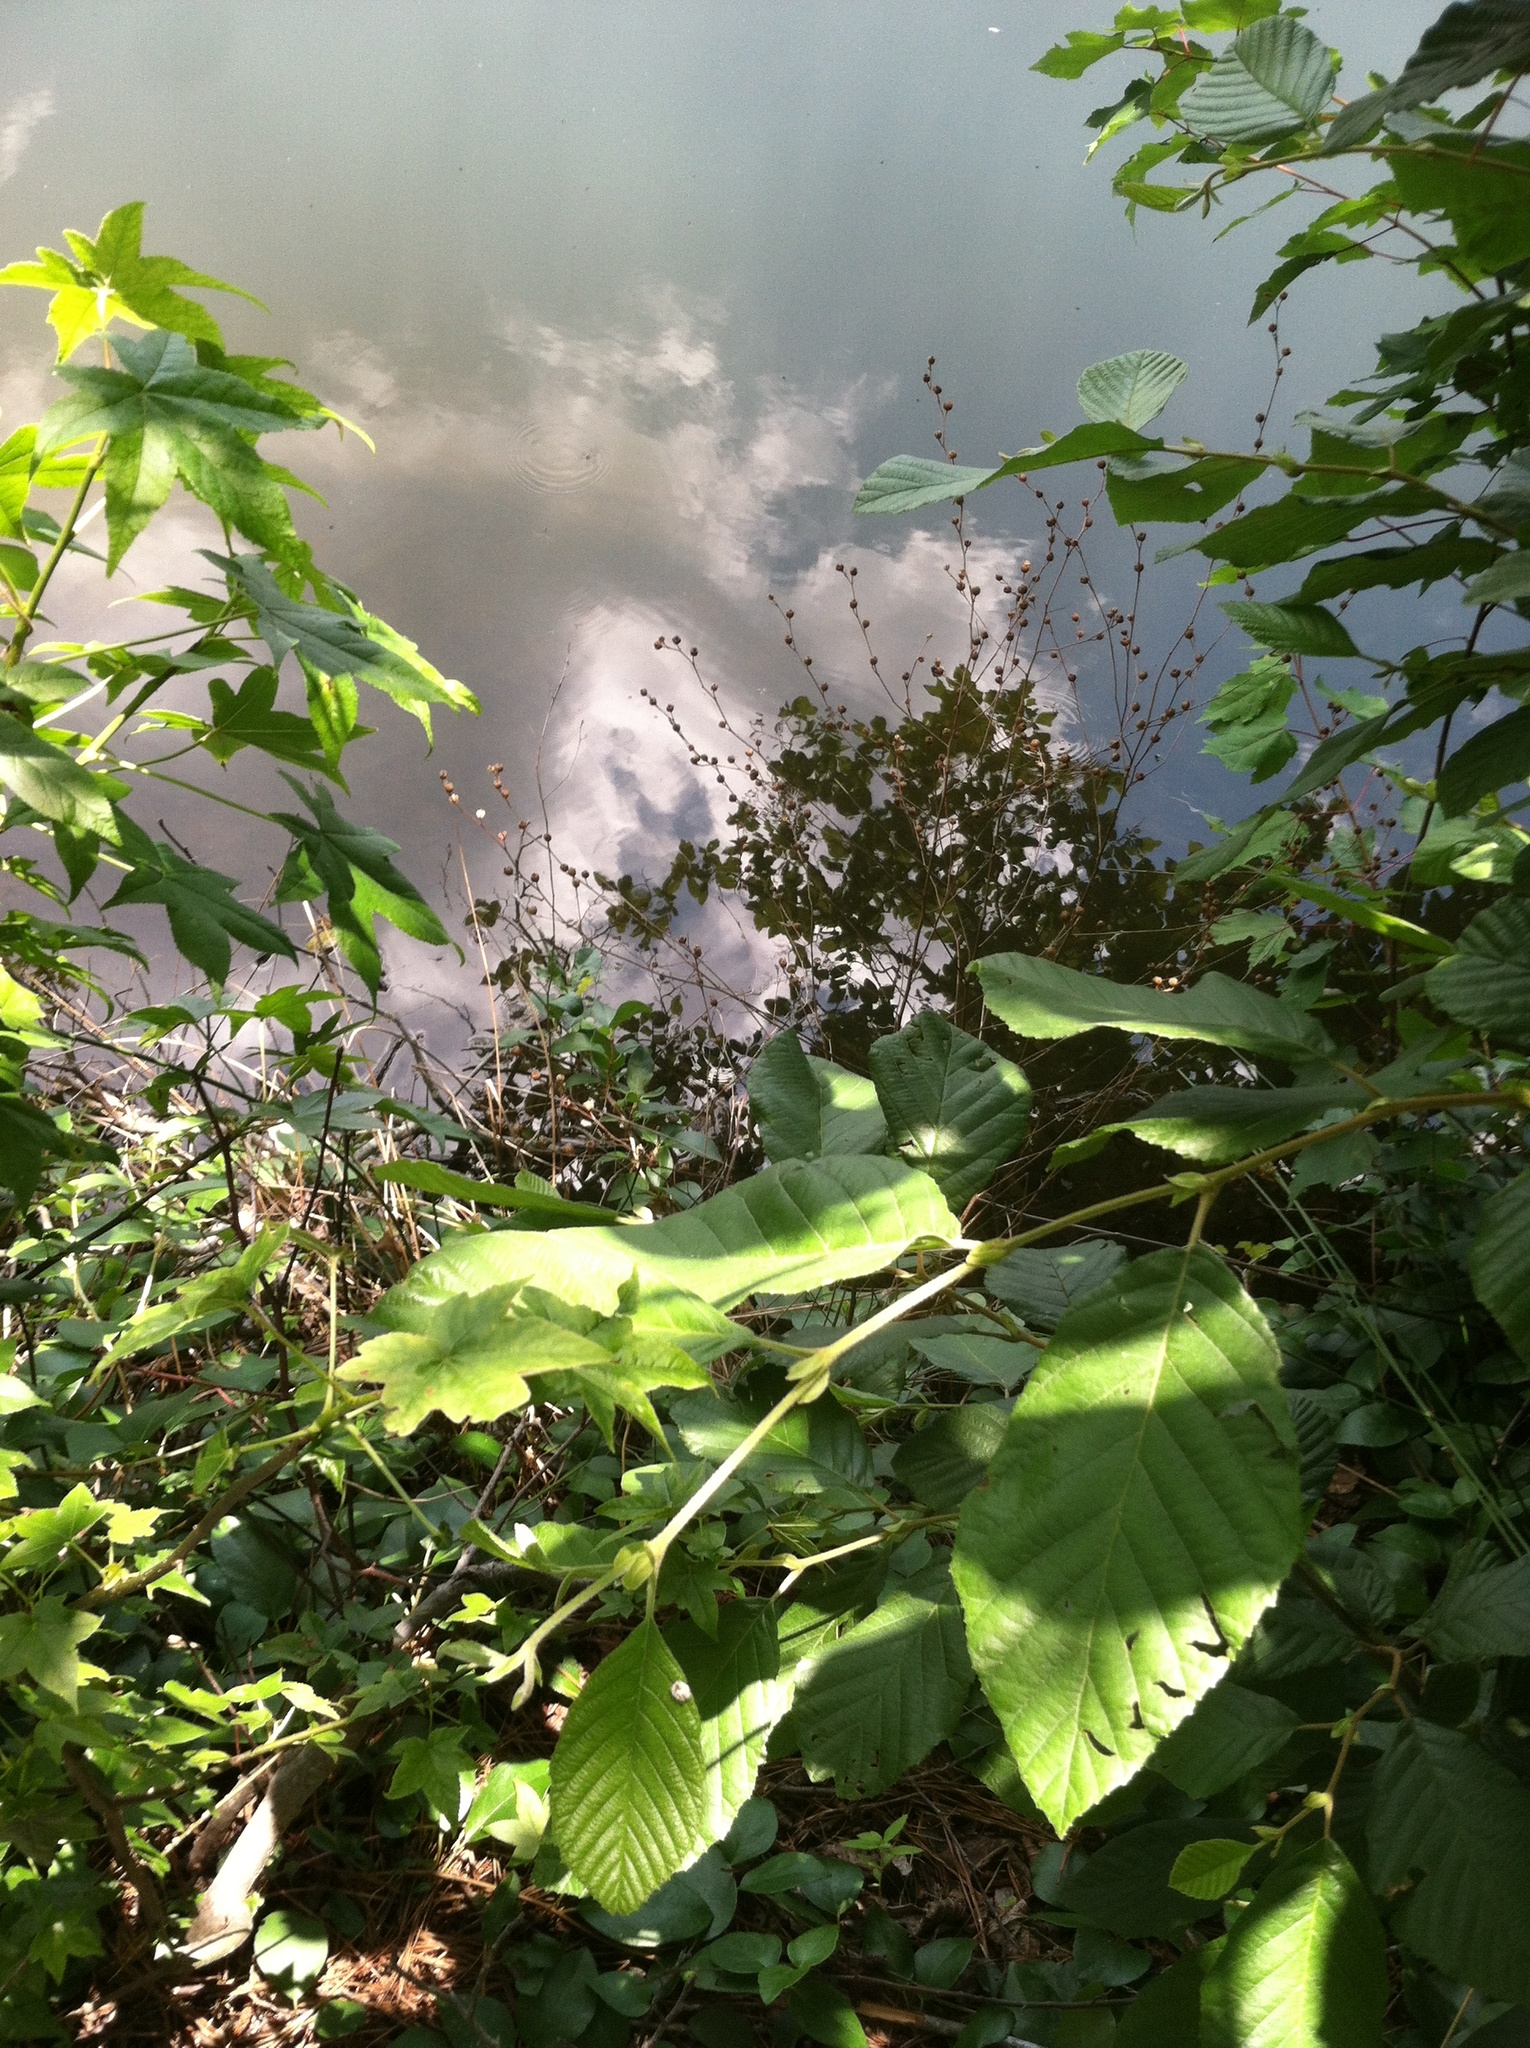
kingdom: Plantae
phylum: Tracheophyta
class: Magnoliopsida
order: Myrtales
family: Onagraceae
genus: Ludwigia
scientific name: Ludwigia alternifolia
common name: Rattlebox
